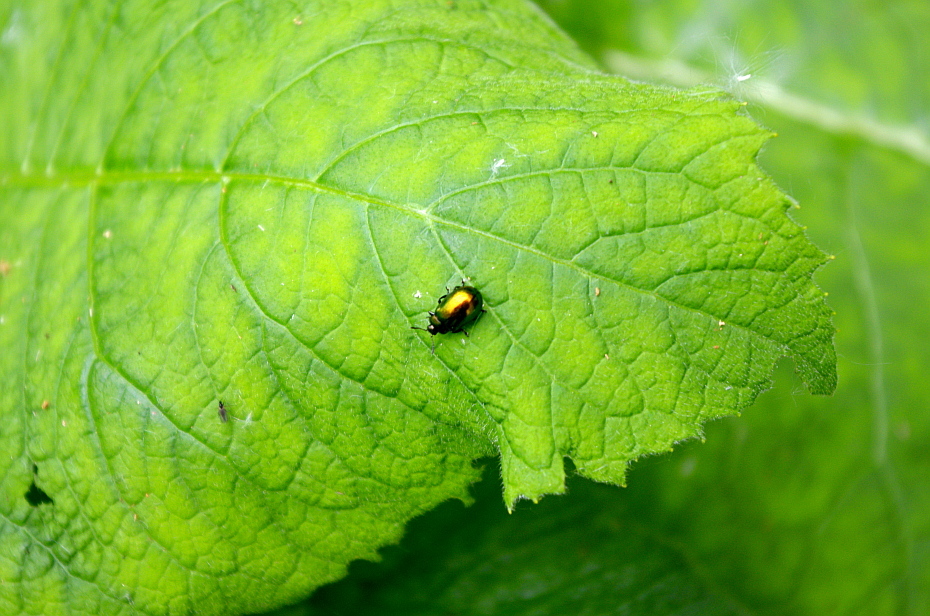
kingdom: Animalia
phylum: Arthropoda
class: Insecta
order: Coleoptera
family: Chrysomelidae
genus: Plagiosterna
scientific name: Plagiosterna aenea
